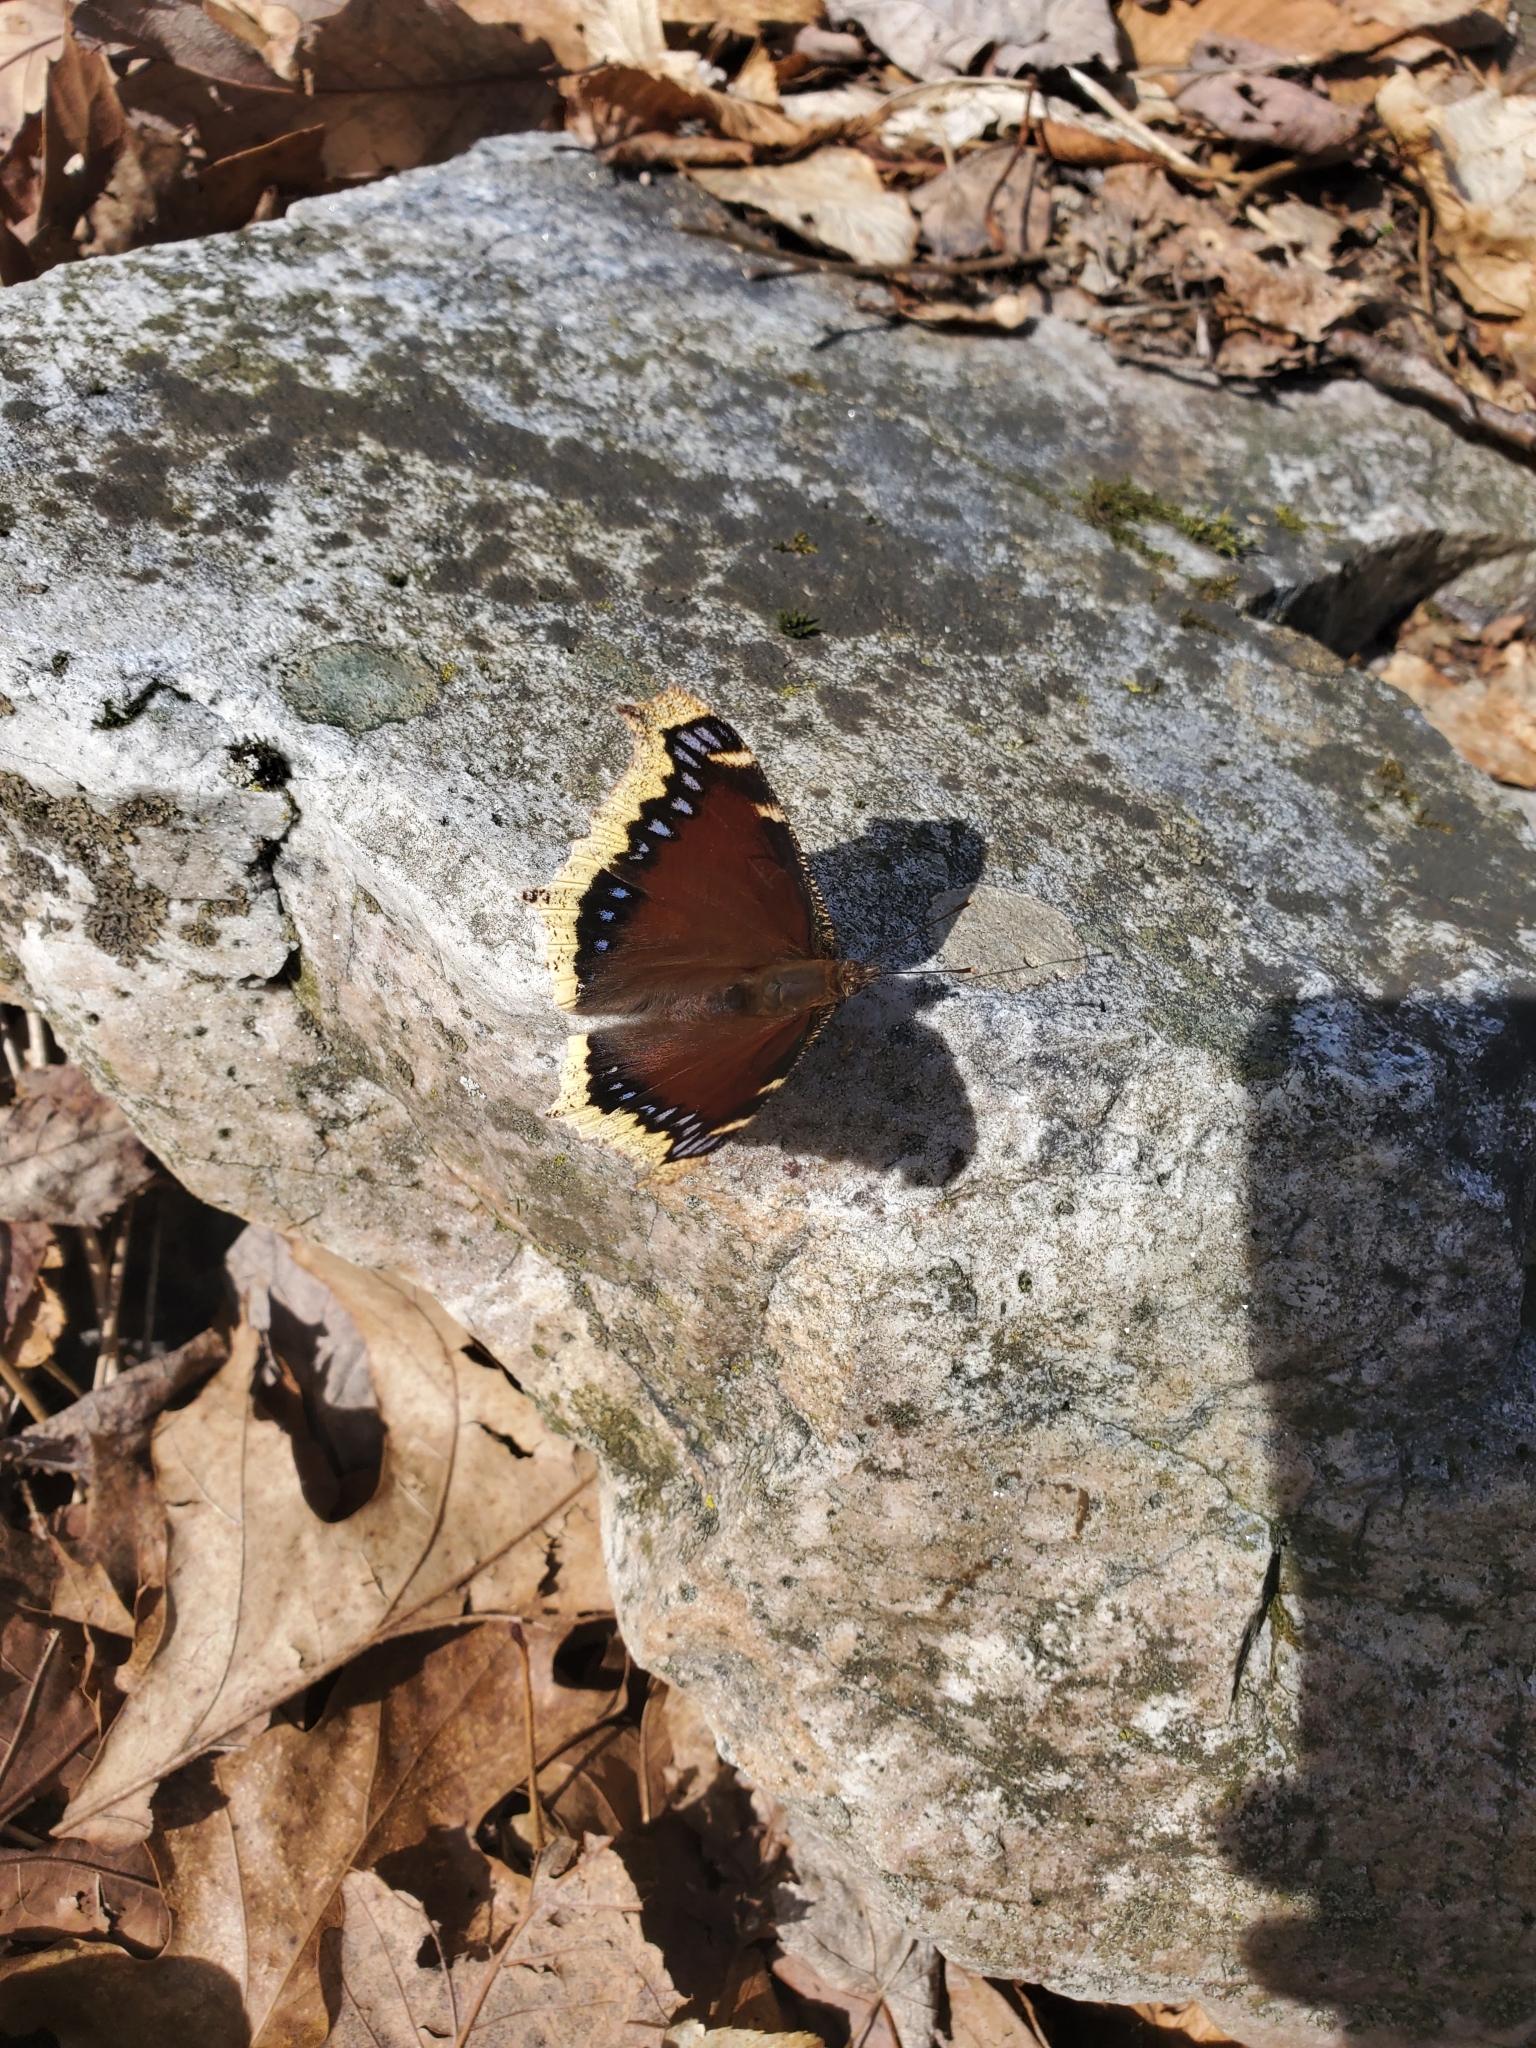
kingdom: Animalia
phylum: Arthropoda
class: Insecta
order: Lepidoptera
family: Nymphalidae
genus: Nymphalis
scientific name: Nymphalis antiopa
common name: Camberwell beauty
